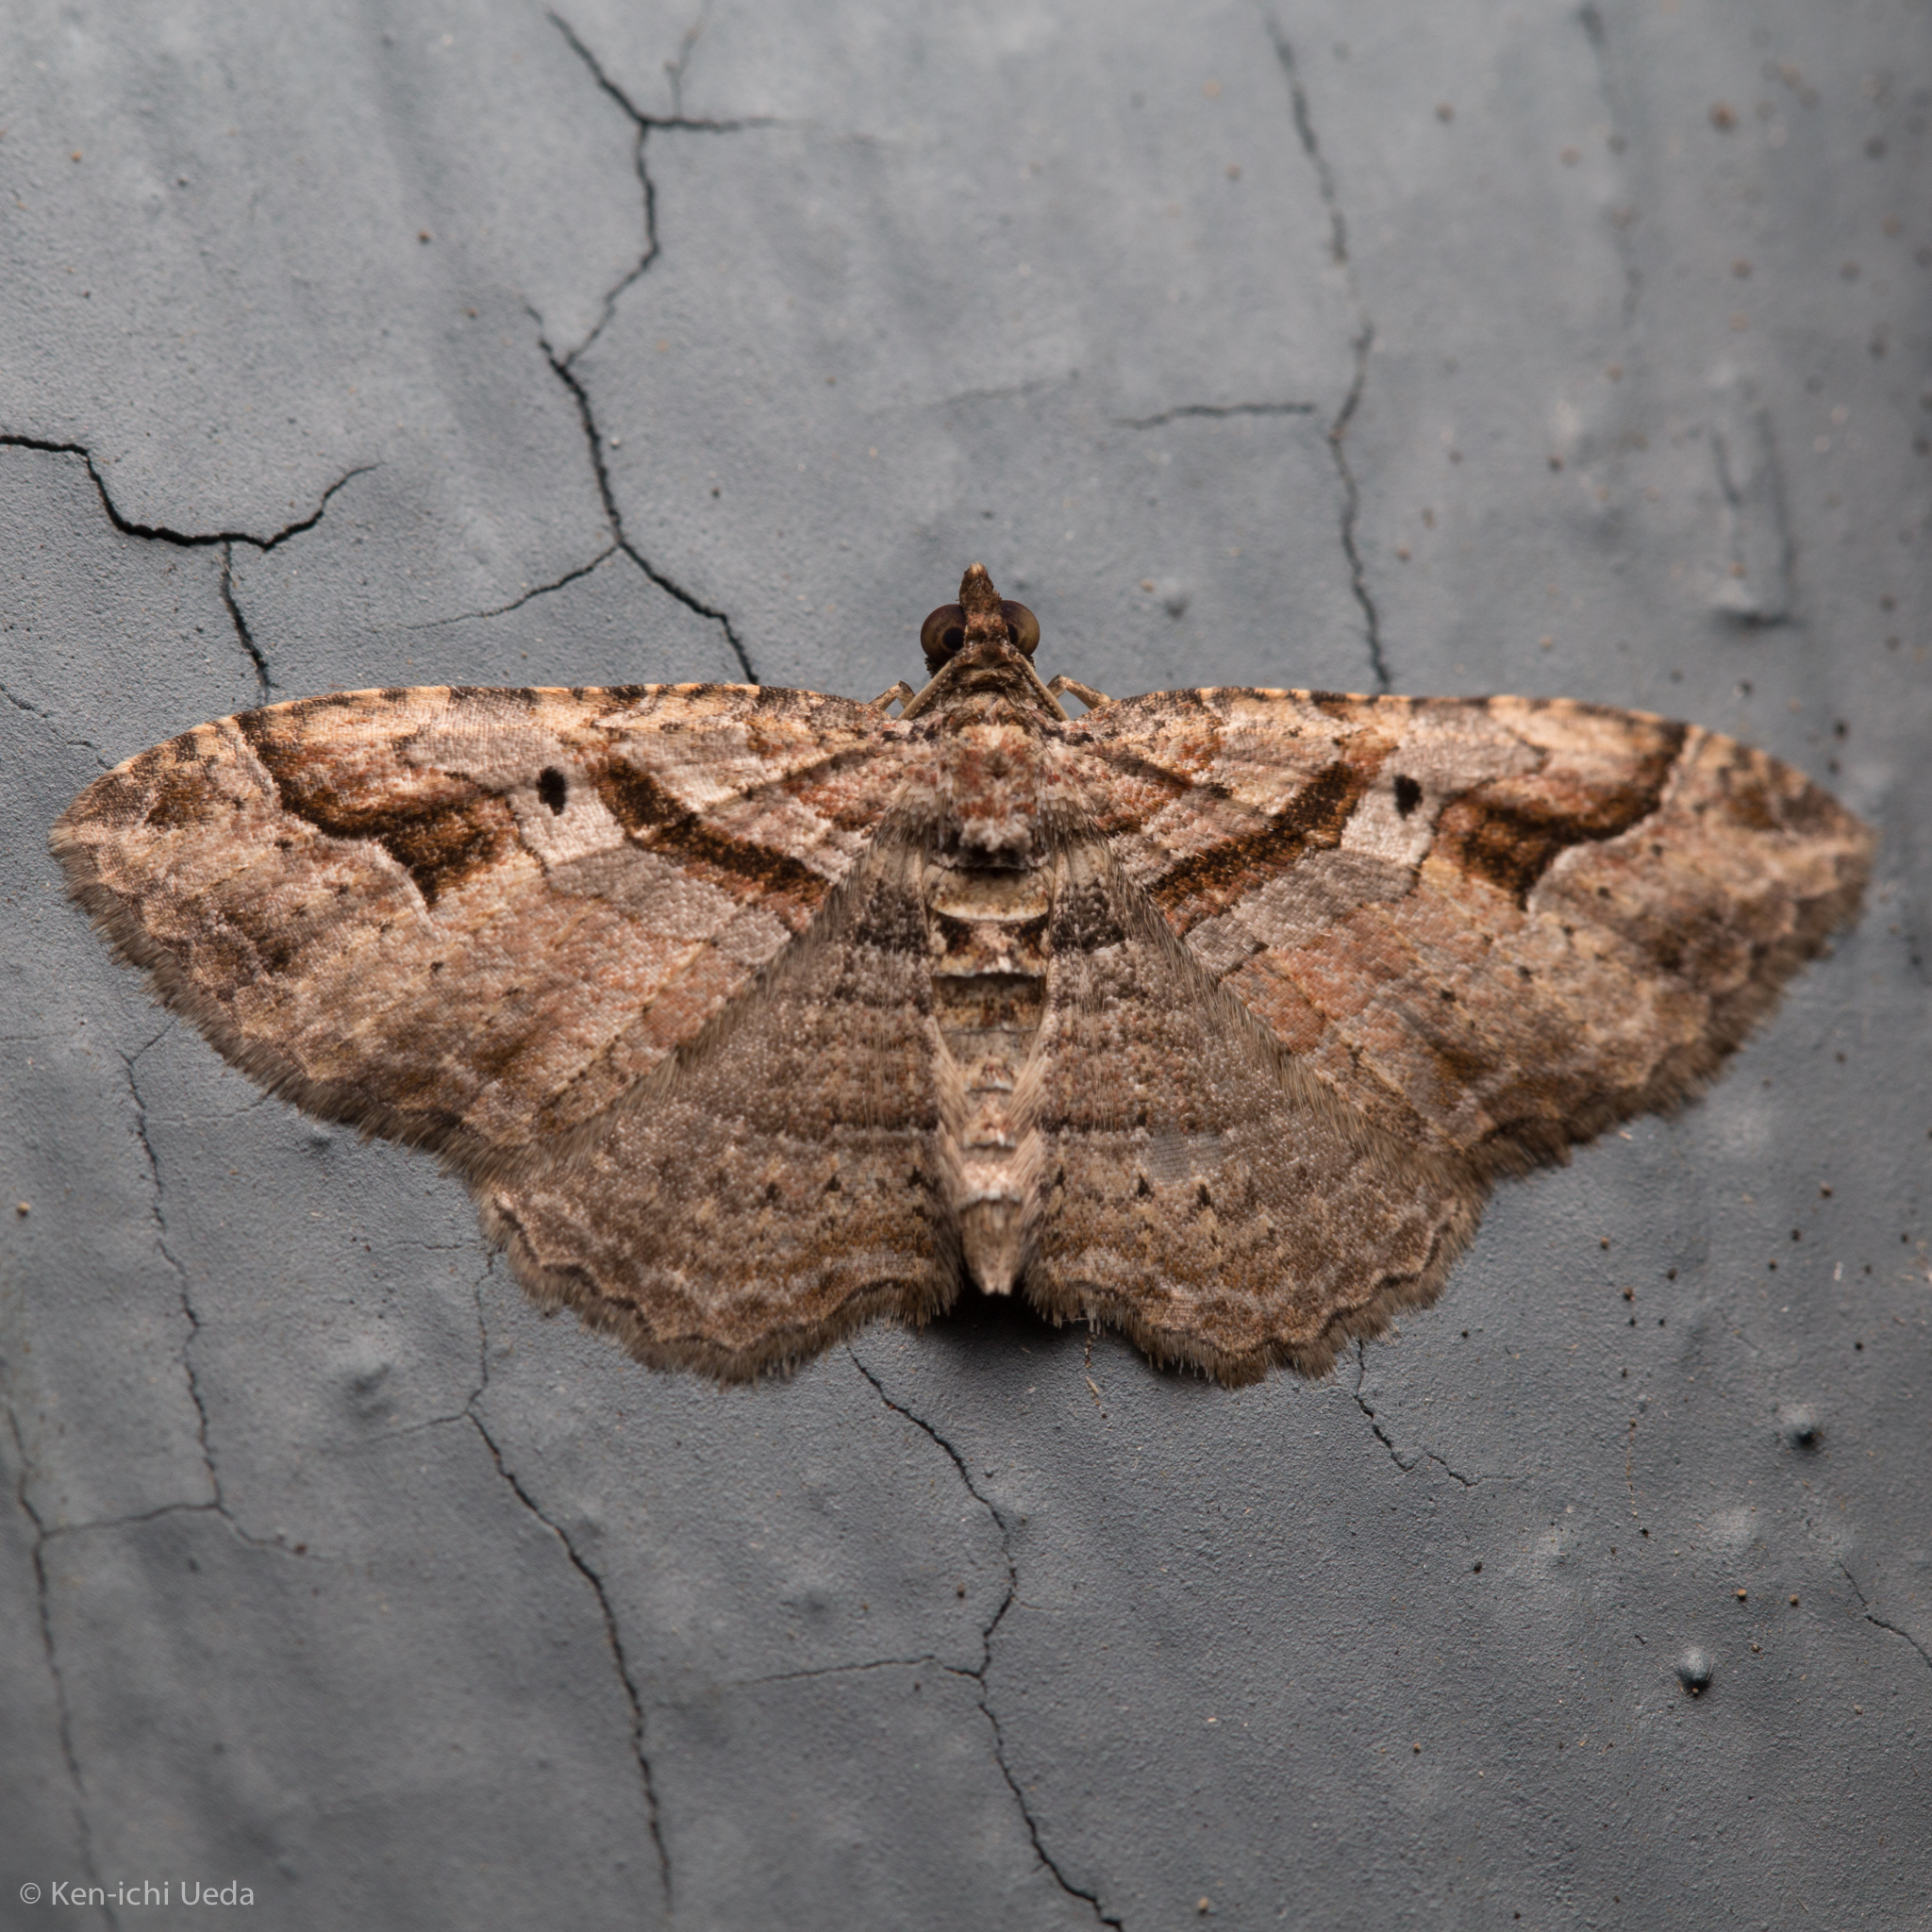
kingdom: Animalia
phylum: Arthropoda
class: Insecta
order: Lepidoptera
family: Geometridae
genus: Costaconvexa
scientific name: Costaconvexa centrostrigaria
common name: Bent-line carpet
